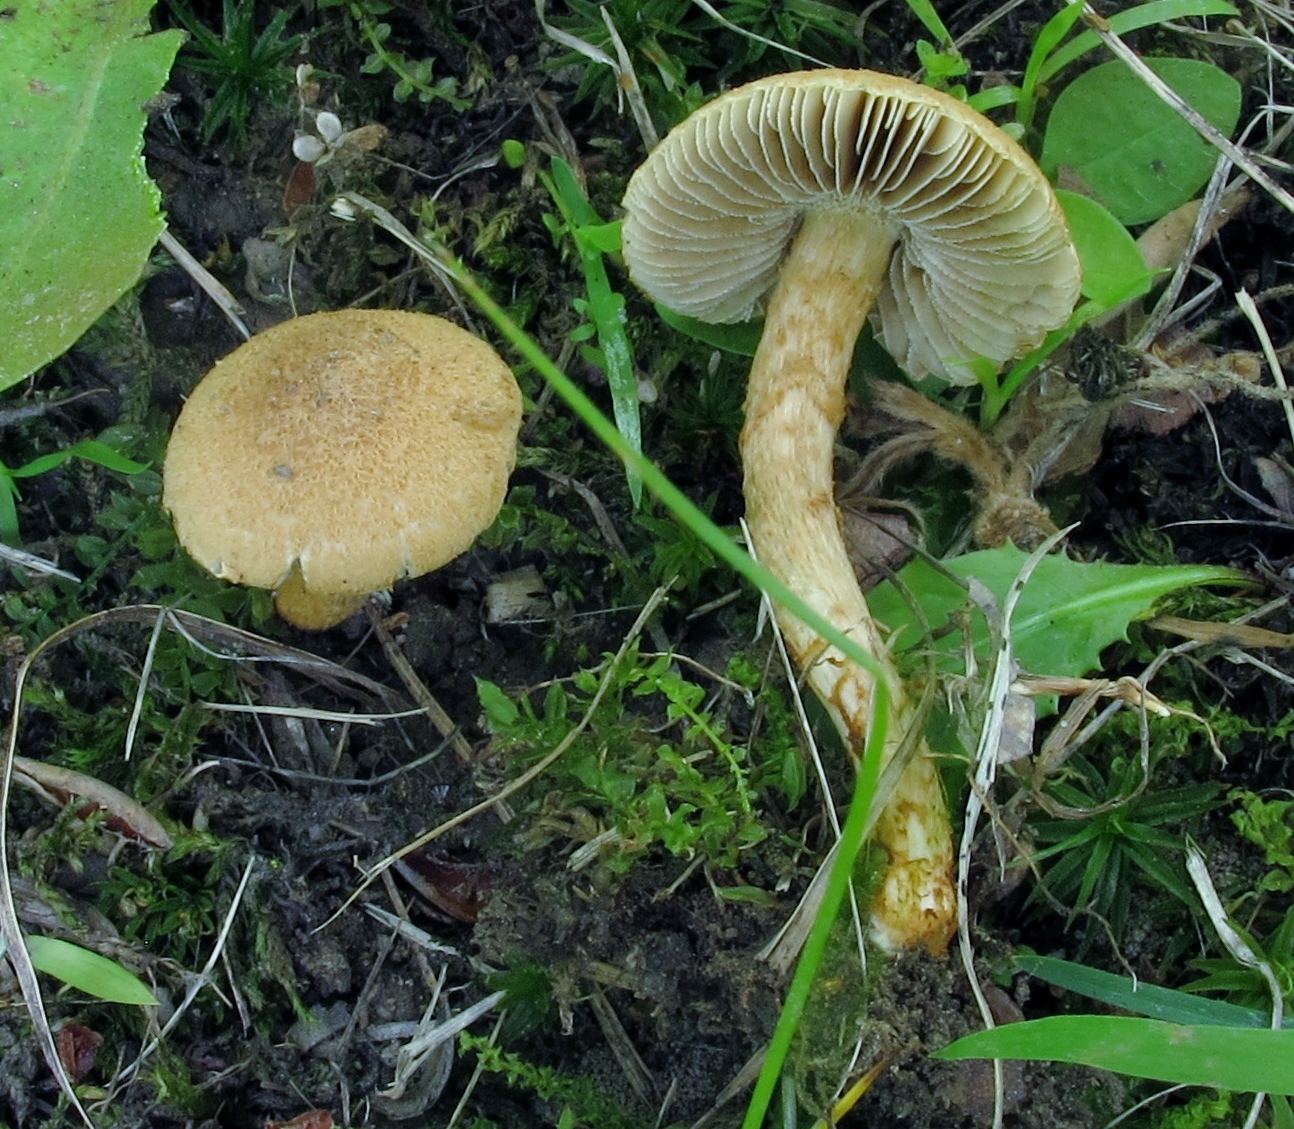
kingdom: Fungi
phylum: Basidiomycota
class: Agaricomycetes
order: Agaricales
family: Inocybaceae
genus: Mallocybe
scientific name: Mallocybe unicolor
